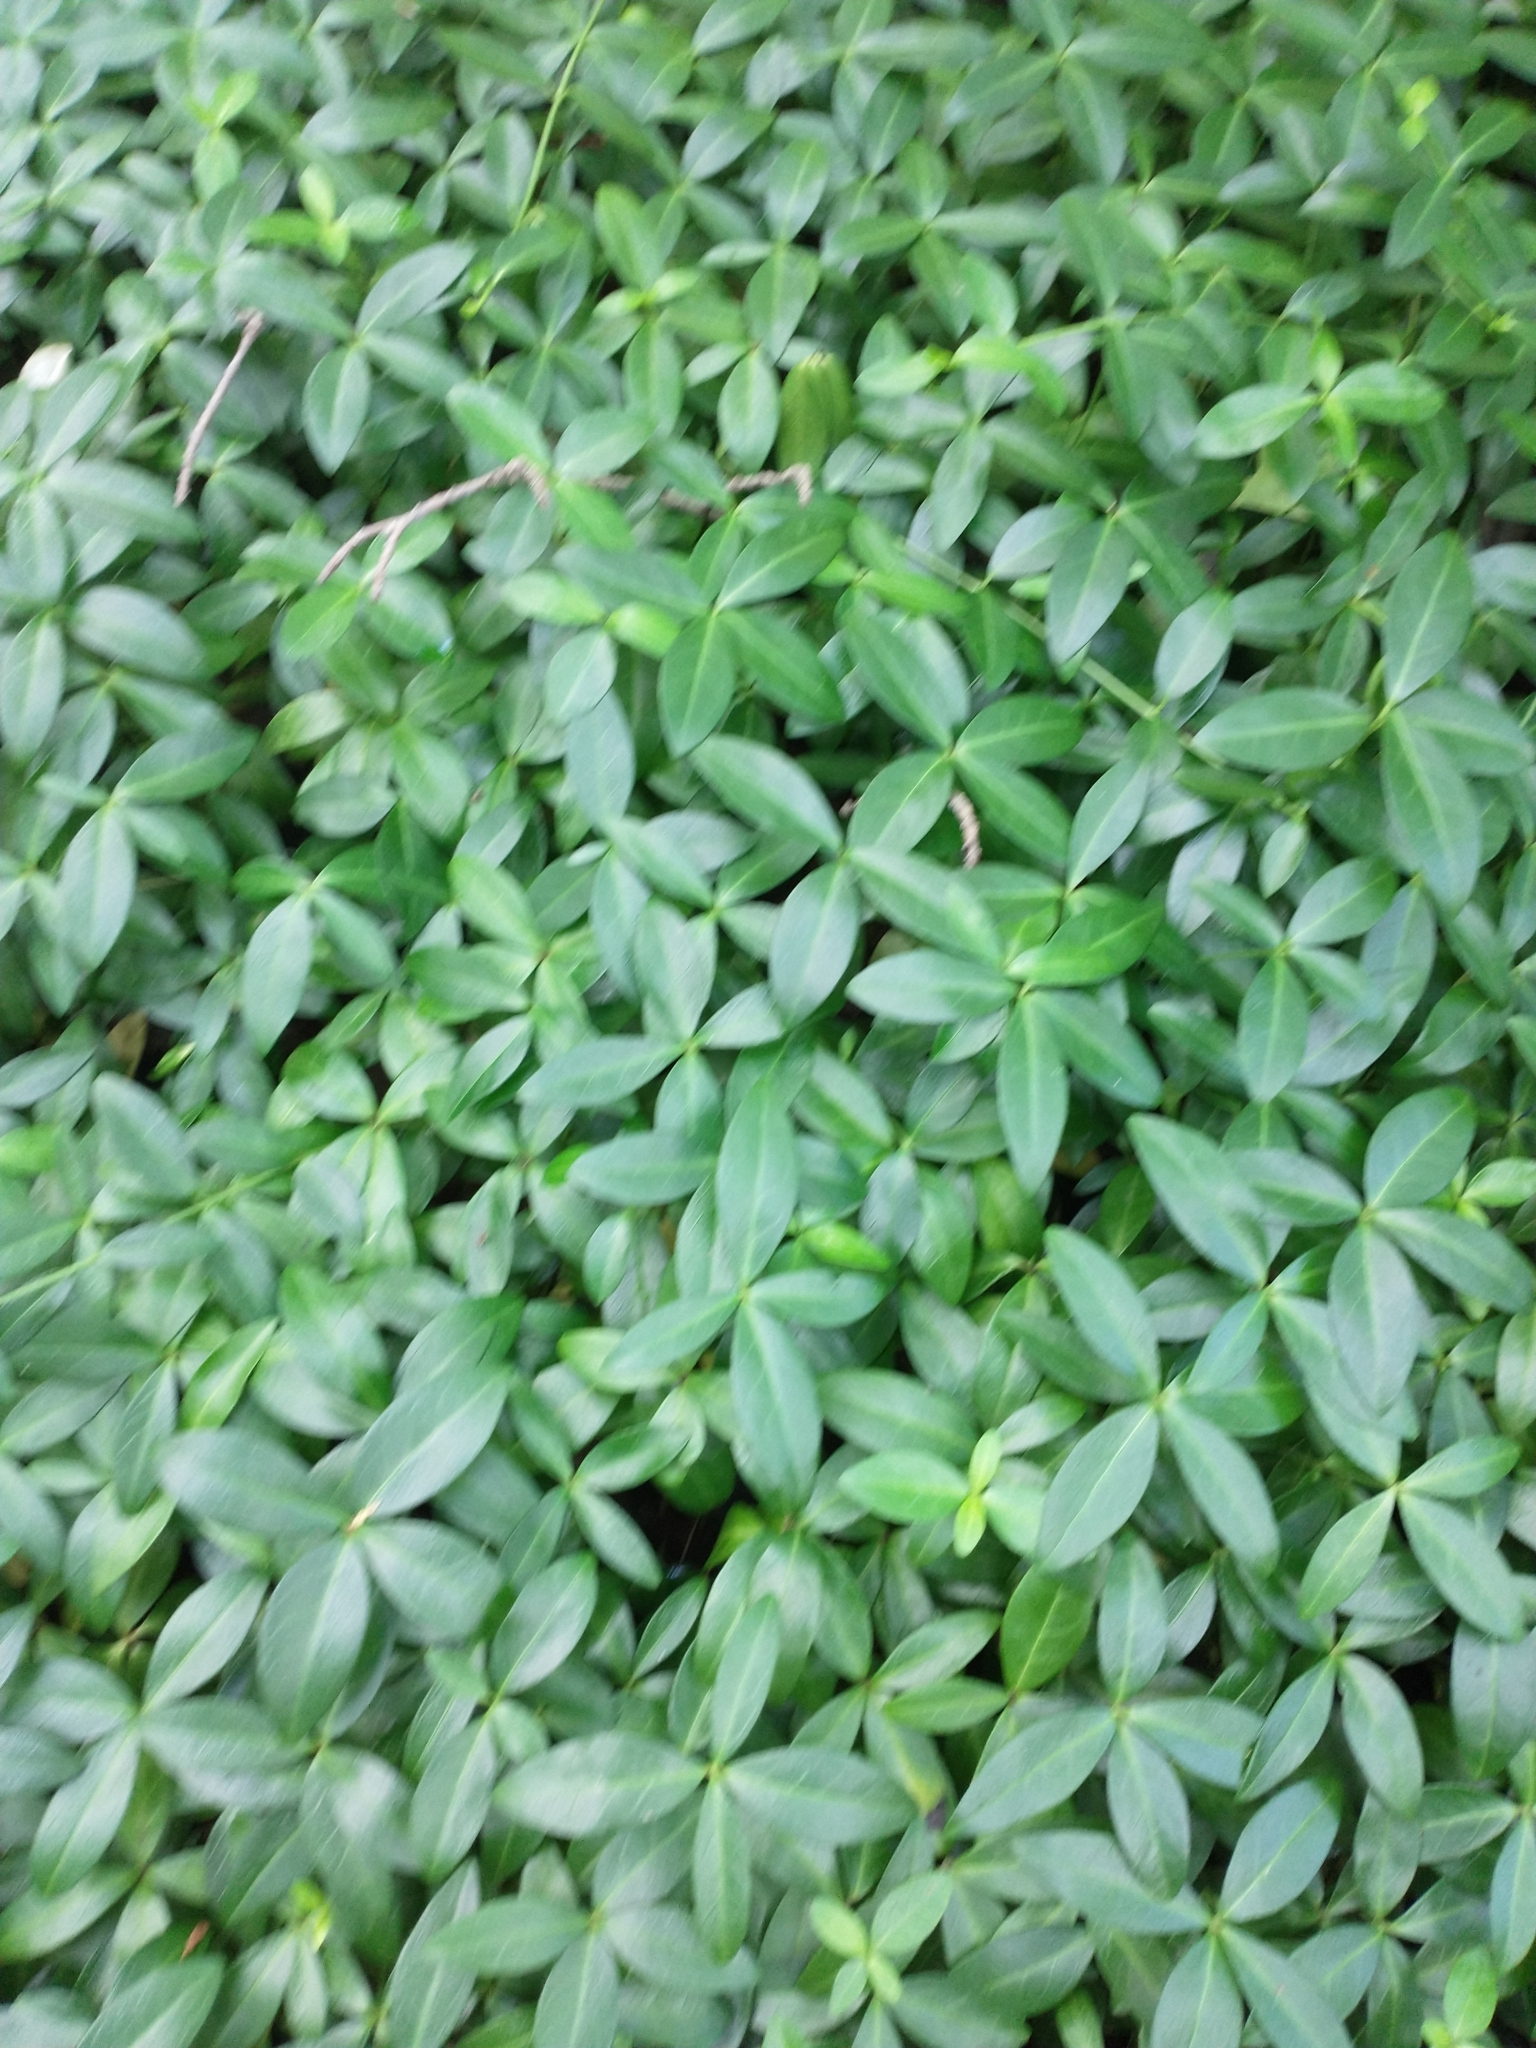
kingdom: Plantae
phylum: Tracheophyta
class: Magnoliopsida
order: Gentianales
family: Apocynaceae
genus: Vinca
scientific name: Vinca minor
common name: Lesser periwinkle
